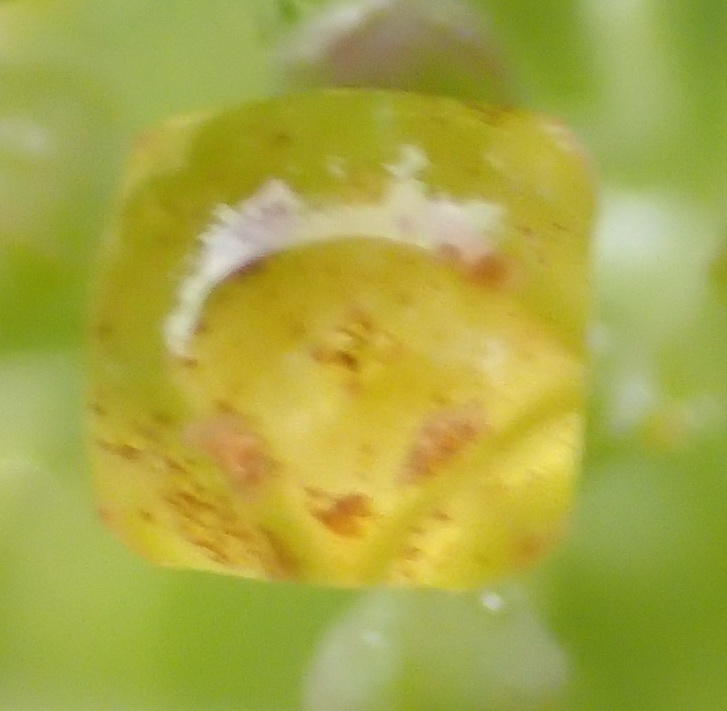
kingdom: Plantae
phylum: Tracheophyta
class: Magnoliopsida
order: Santalales
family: Santalaceae
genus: Osyris
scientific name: Osyris compressa
